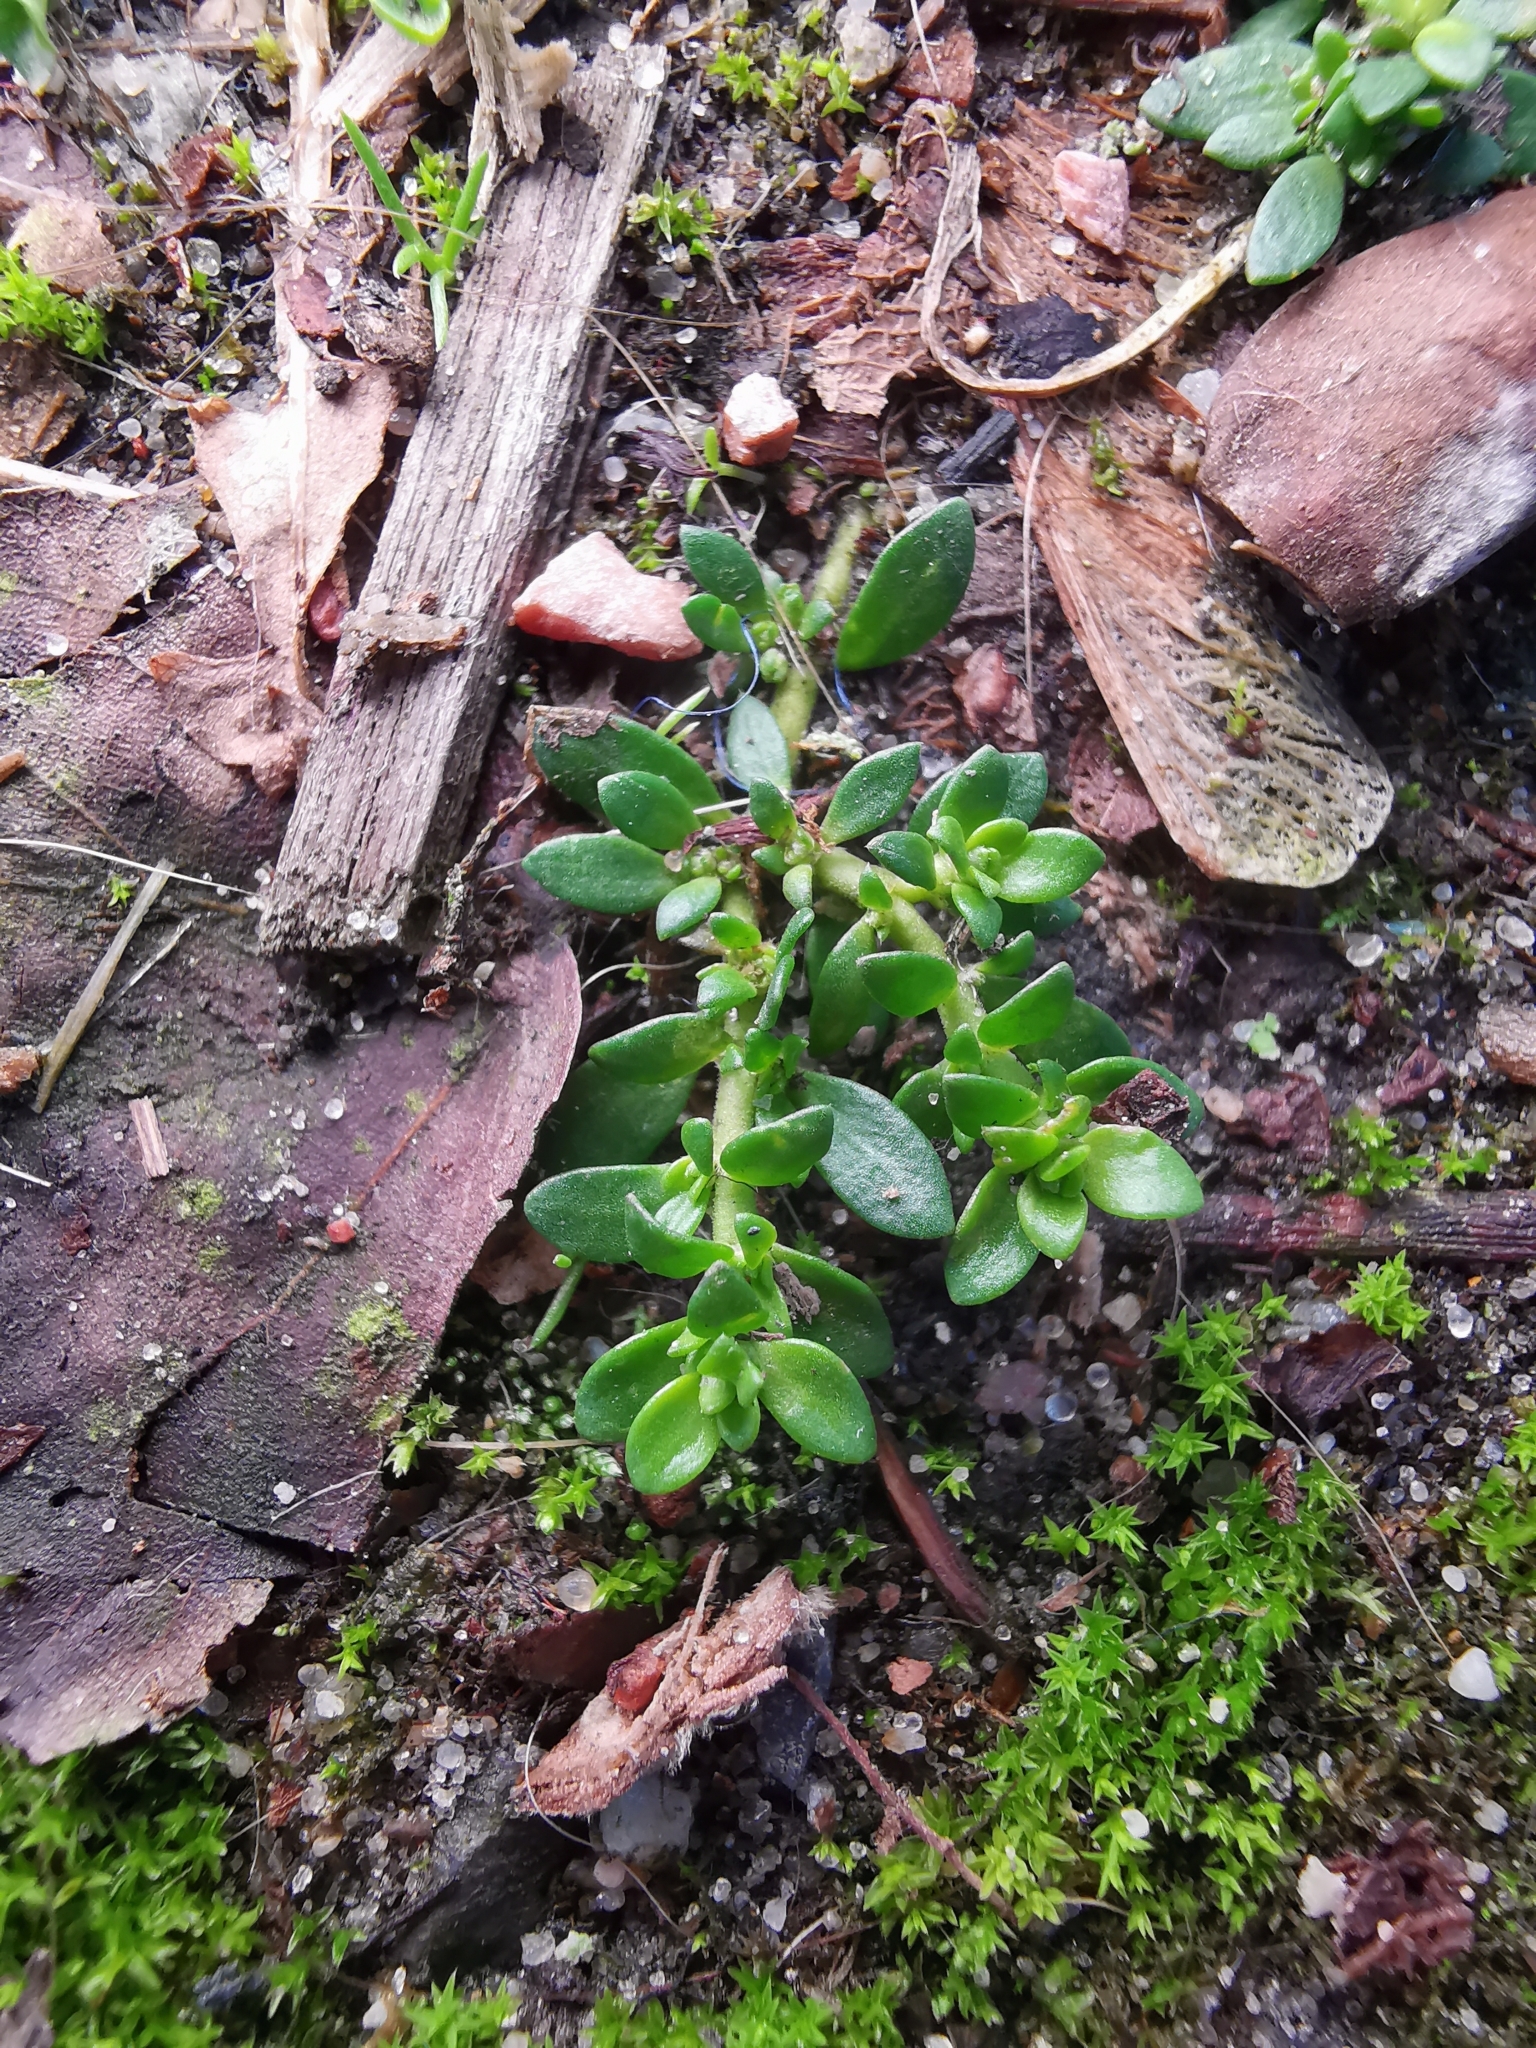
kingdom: Plantae
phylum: Tracheophyta
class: Magnoliopsida
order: Caryophyllales
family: Caryophyllaceae
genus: Herniaria
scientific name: Herniaria glabra
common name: Smooth rupturewort
